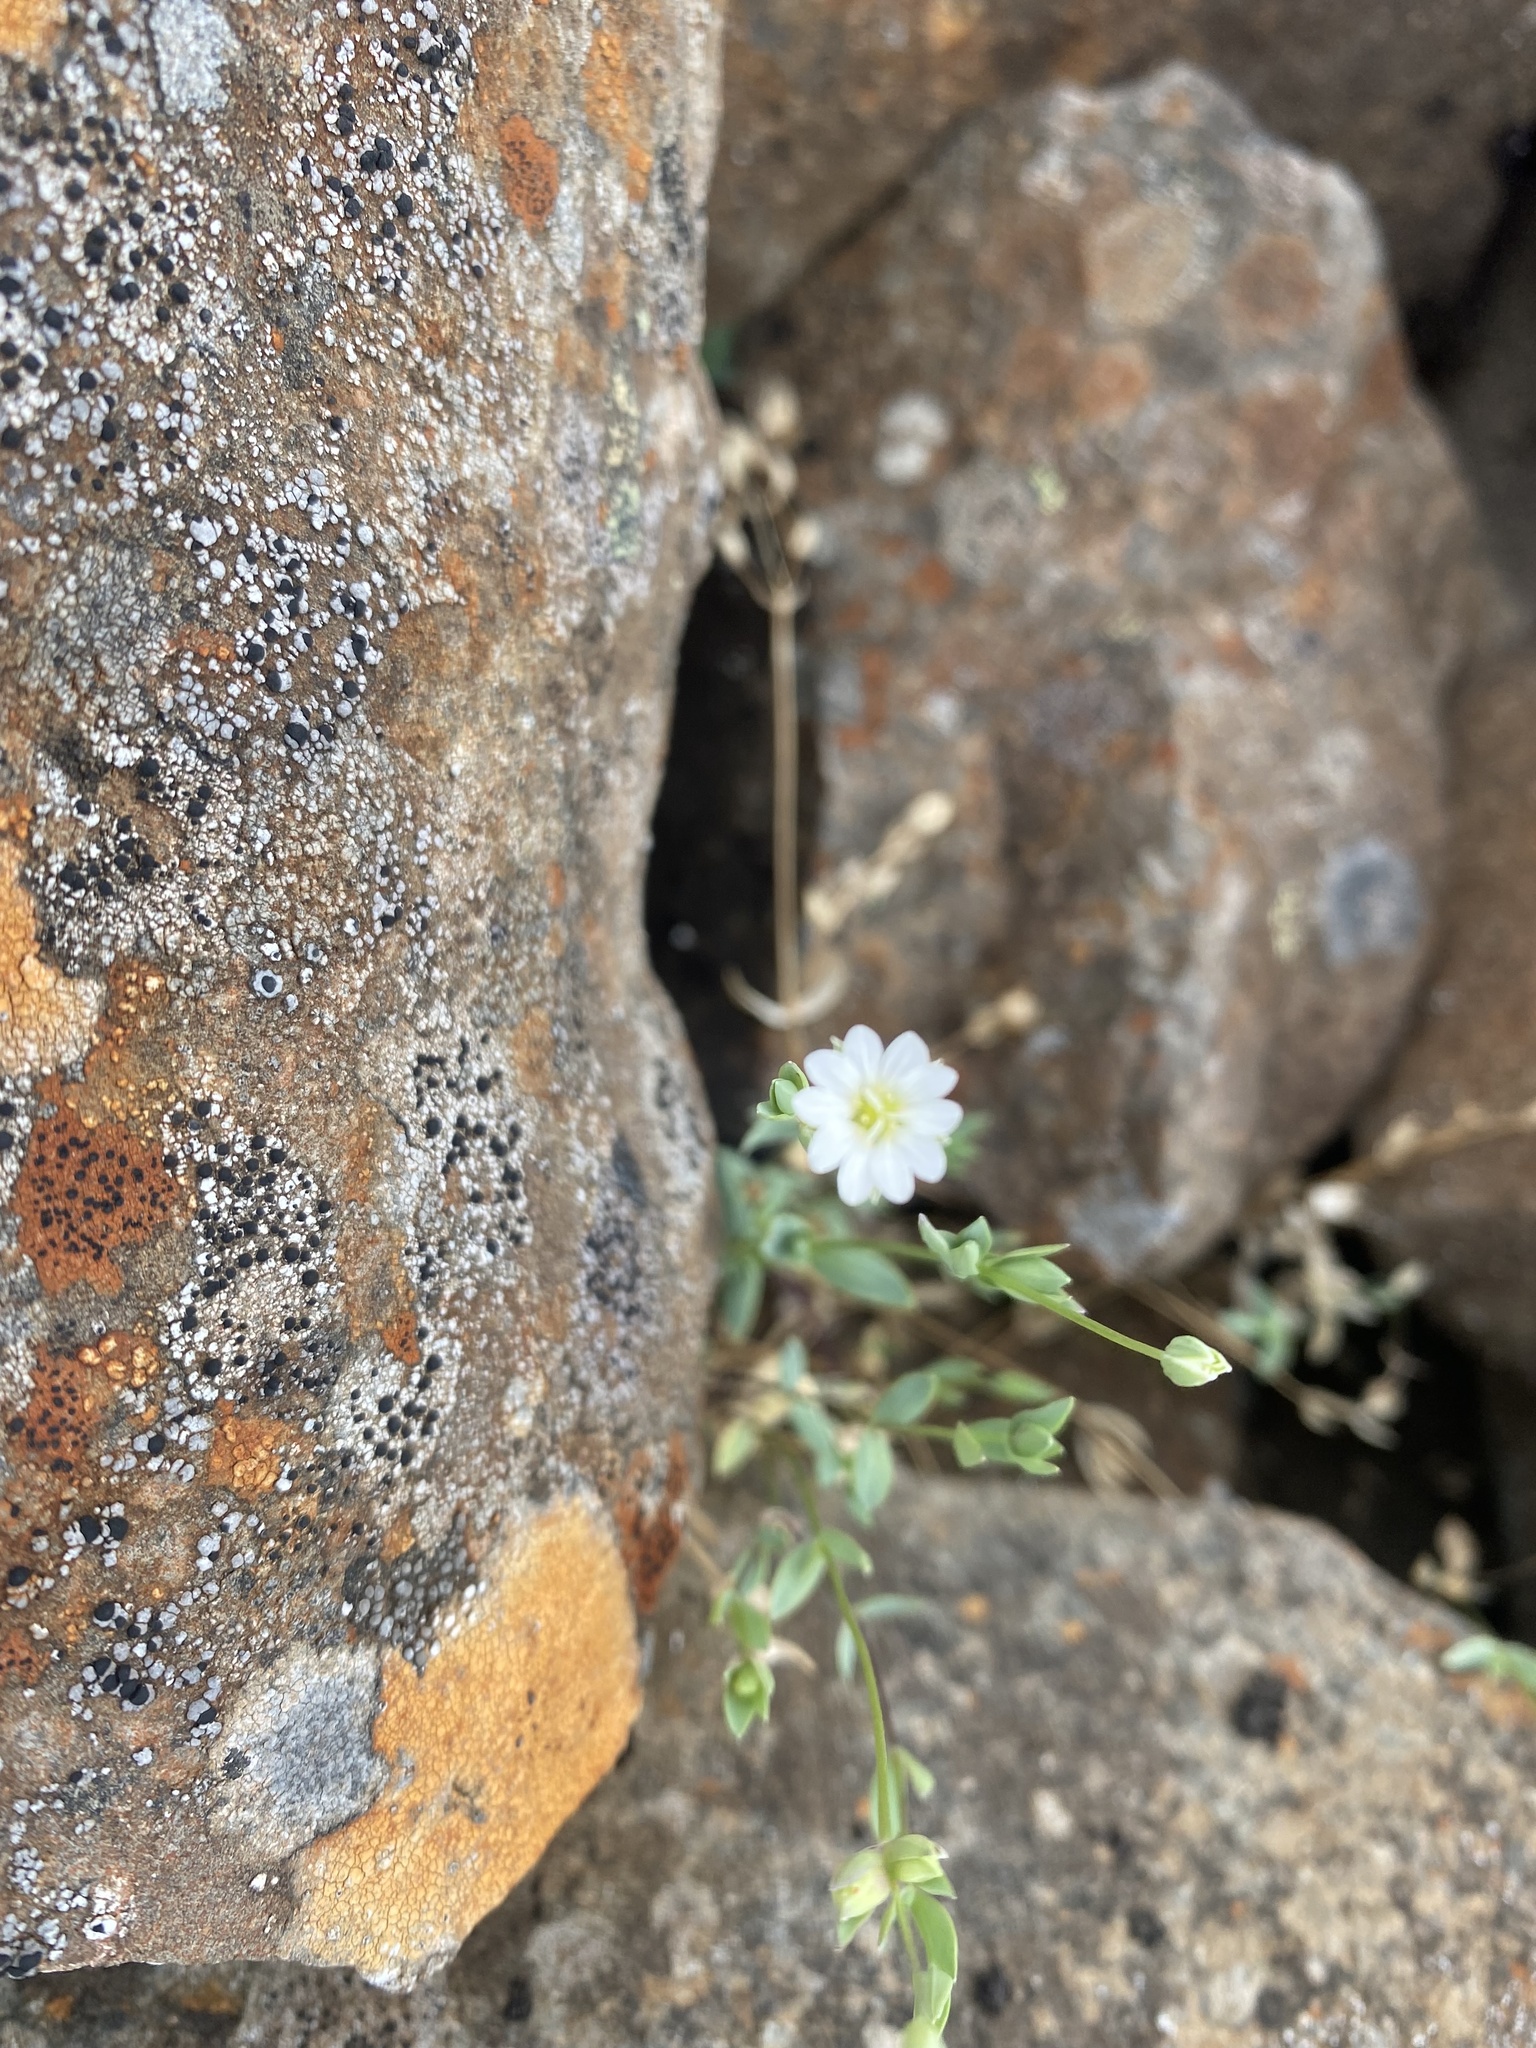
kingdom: Plantae
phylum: Tracheophyta
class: Magnoliopsida
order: Caryophyllales
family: Caryophyllaceae
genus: Stellaria
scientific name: Stellaria longipes
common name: Goldie's starwort
